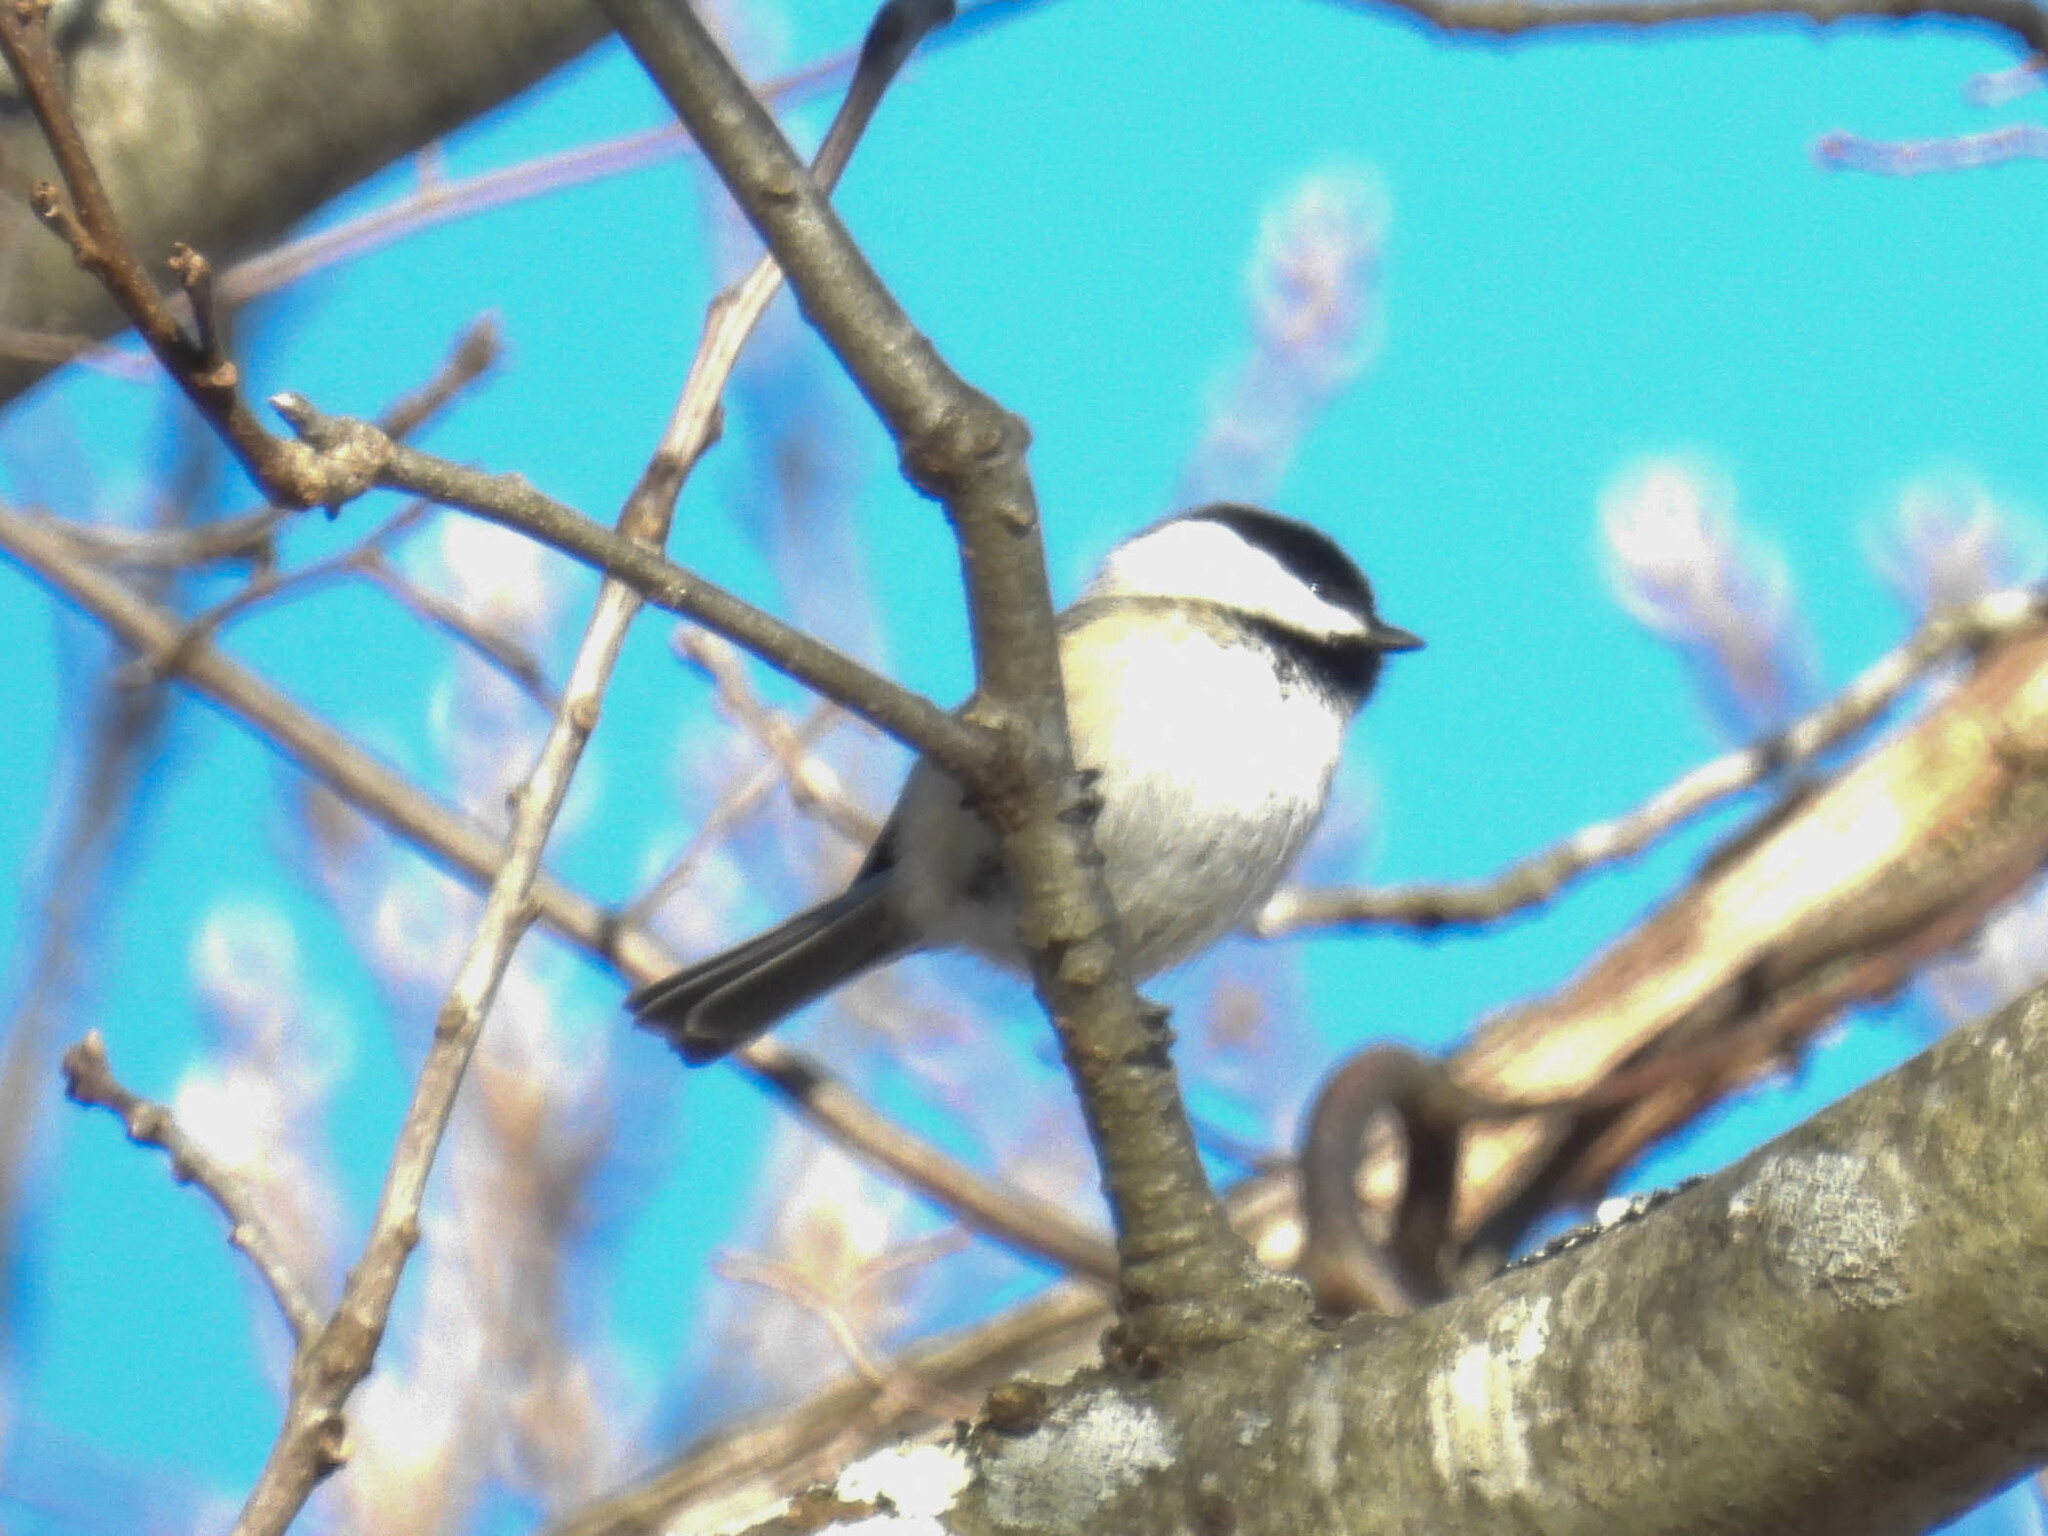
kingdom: Animalia
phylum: Chordata
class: Aves
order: Passeriformes
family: Paridae
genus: Poecile
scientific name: Poecile atricapillus
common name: Black-capped chickadee
